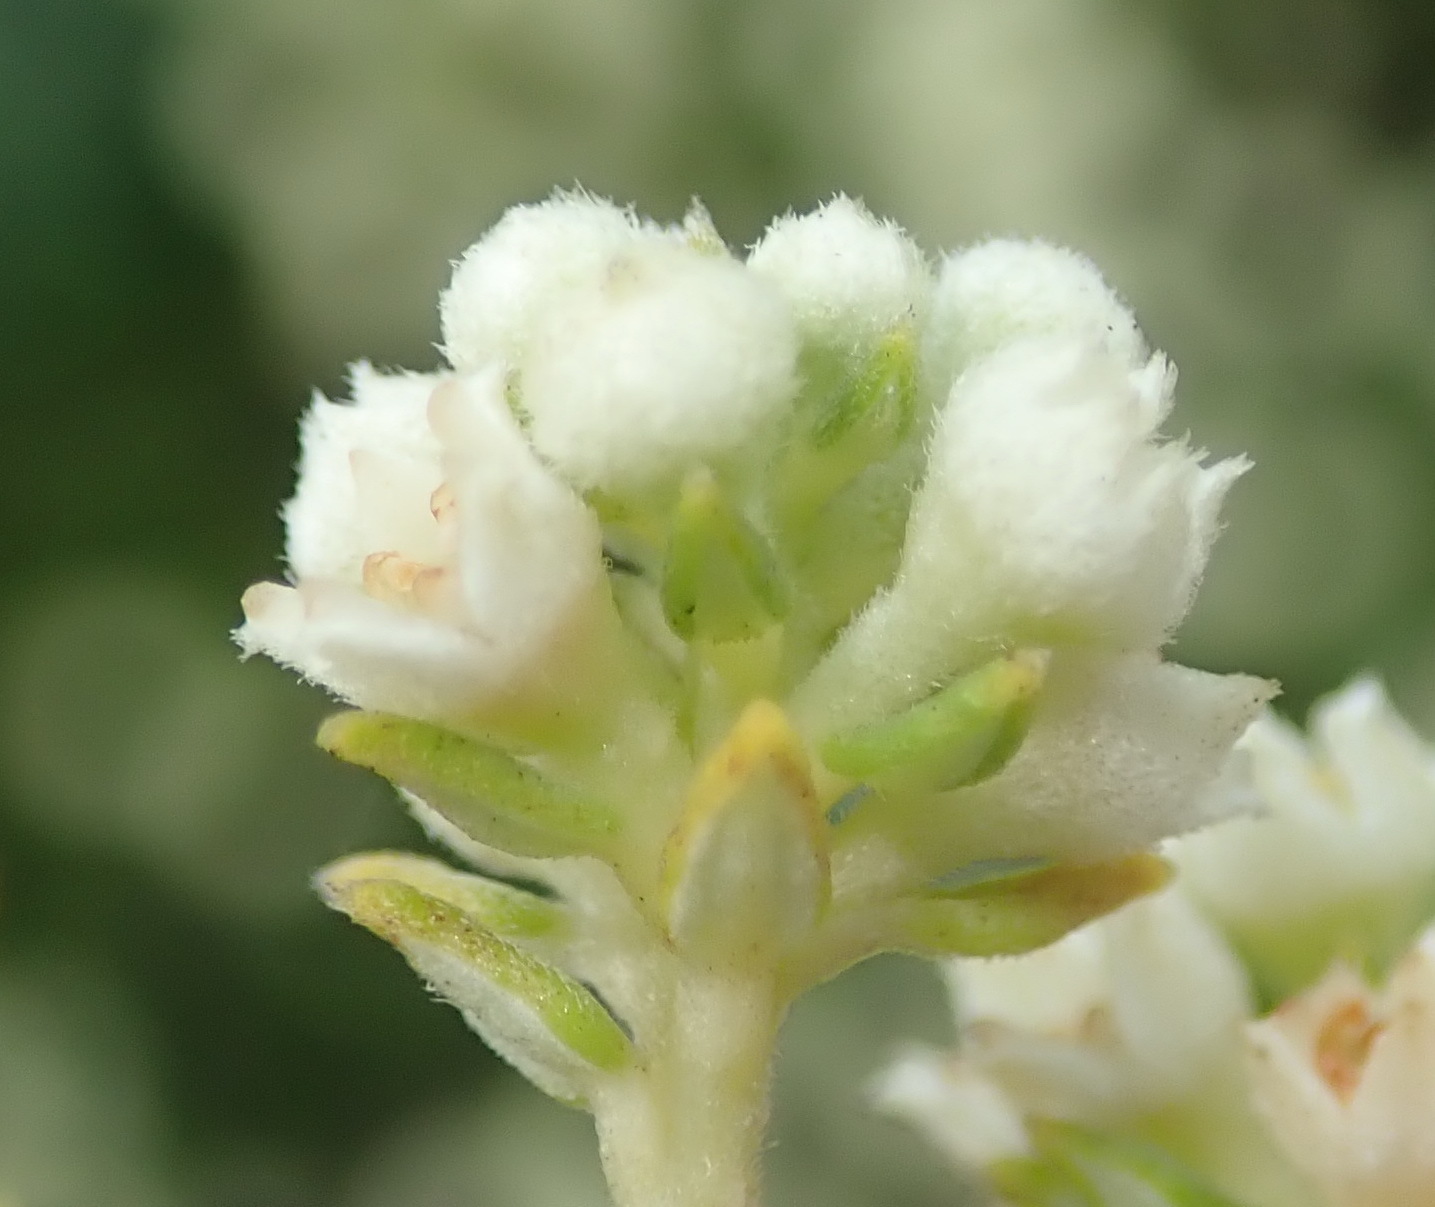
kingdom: Plantae
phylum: Tracheophyta
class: Magnoliopsida
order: Rosales
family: Rhamnaceae
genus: Phylica
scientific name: Phylica axillaris
